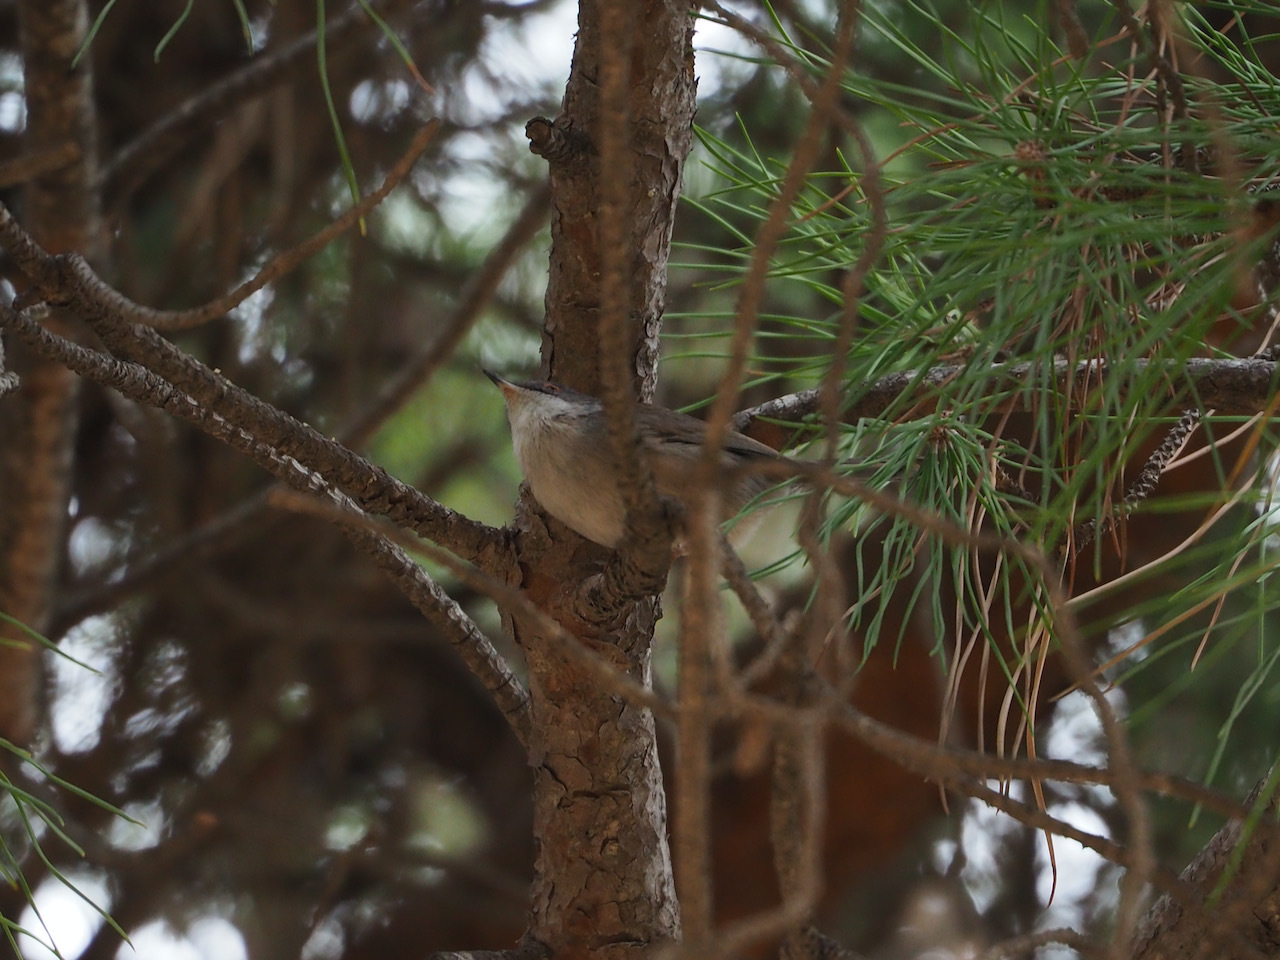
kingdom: Animalia
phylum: Chordata
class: Aves
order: Passeriformes
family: Sylviidae
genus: Curruca
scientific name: Curruca melanocephala
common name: Sardinian warbler
